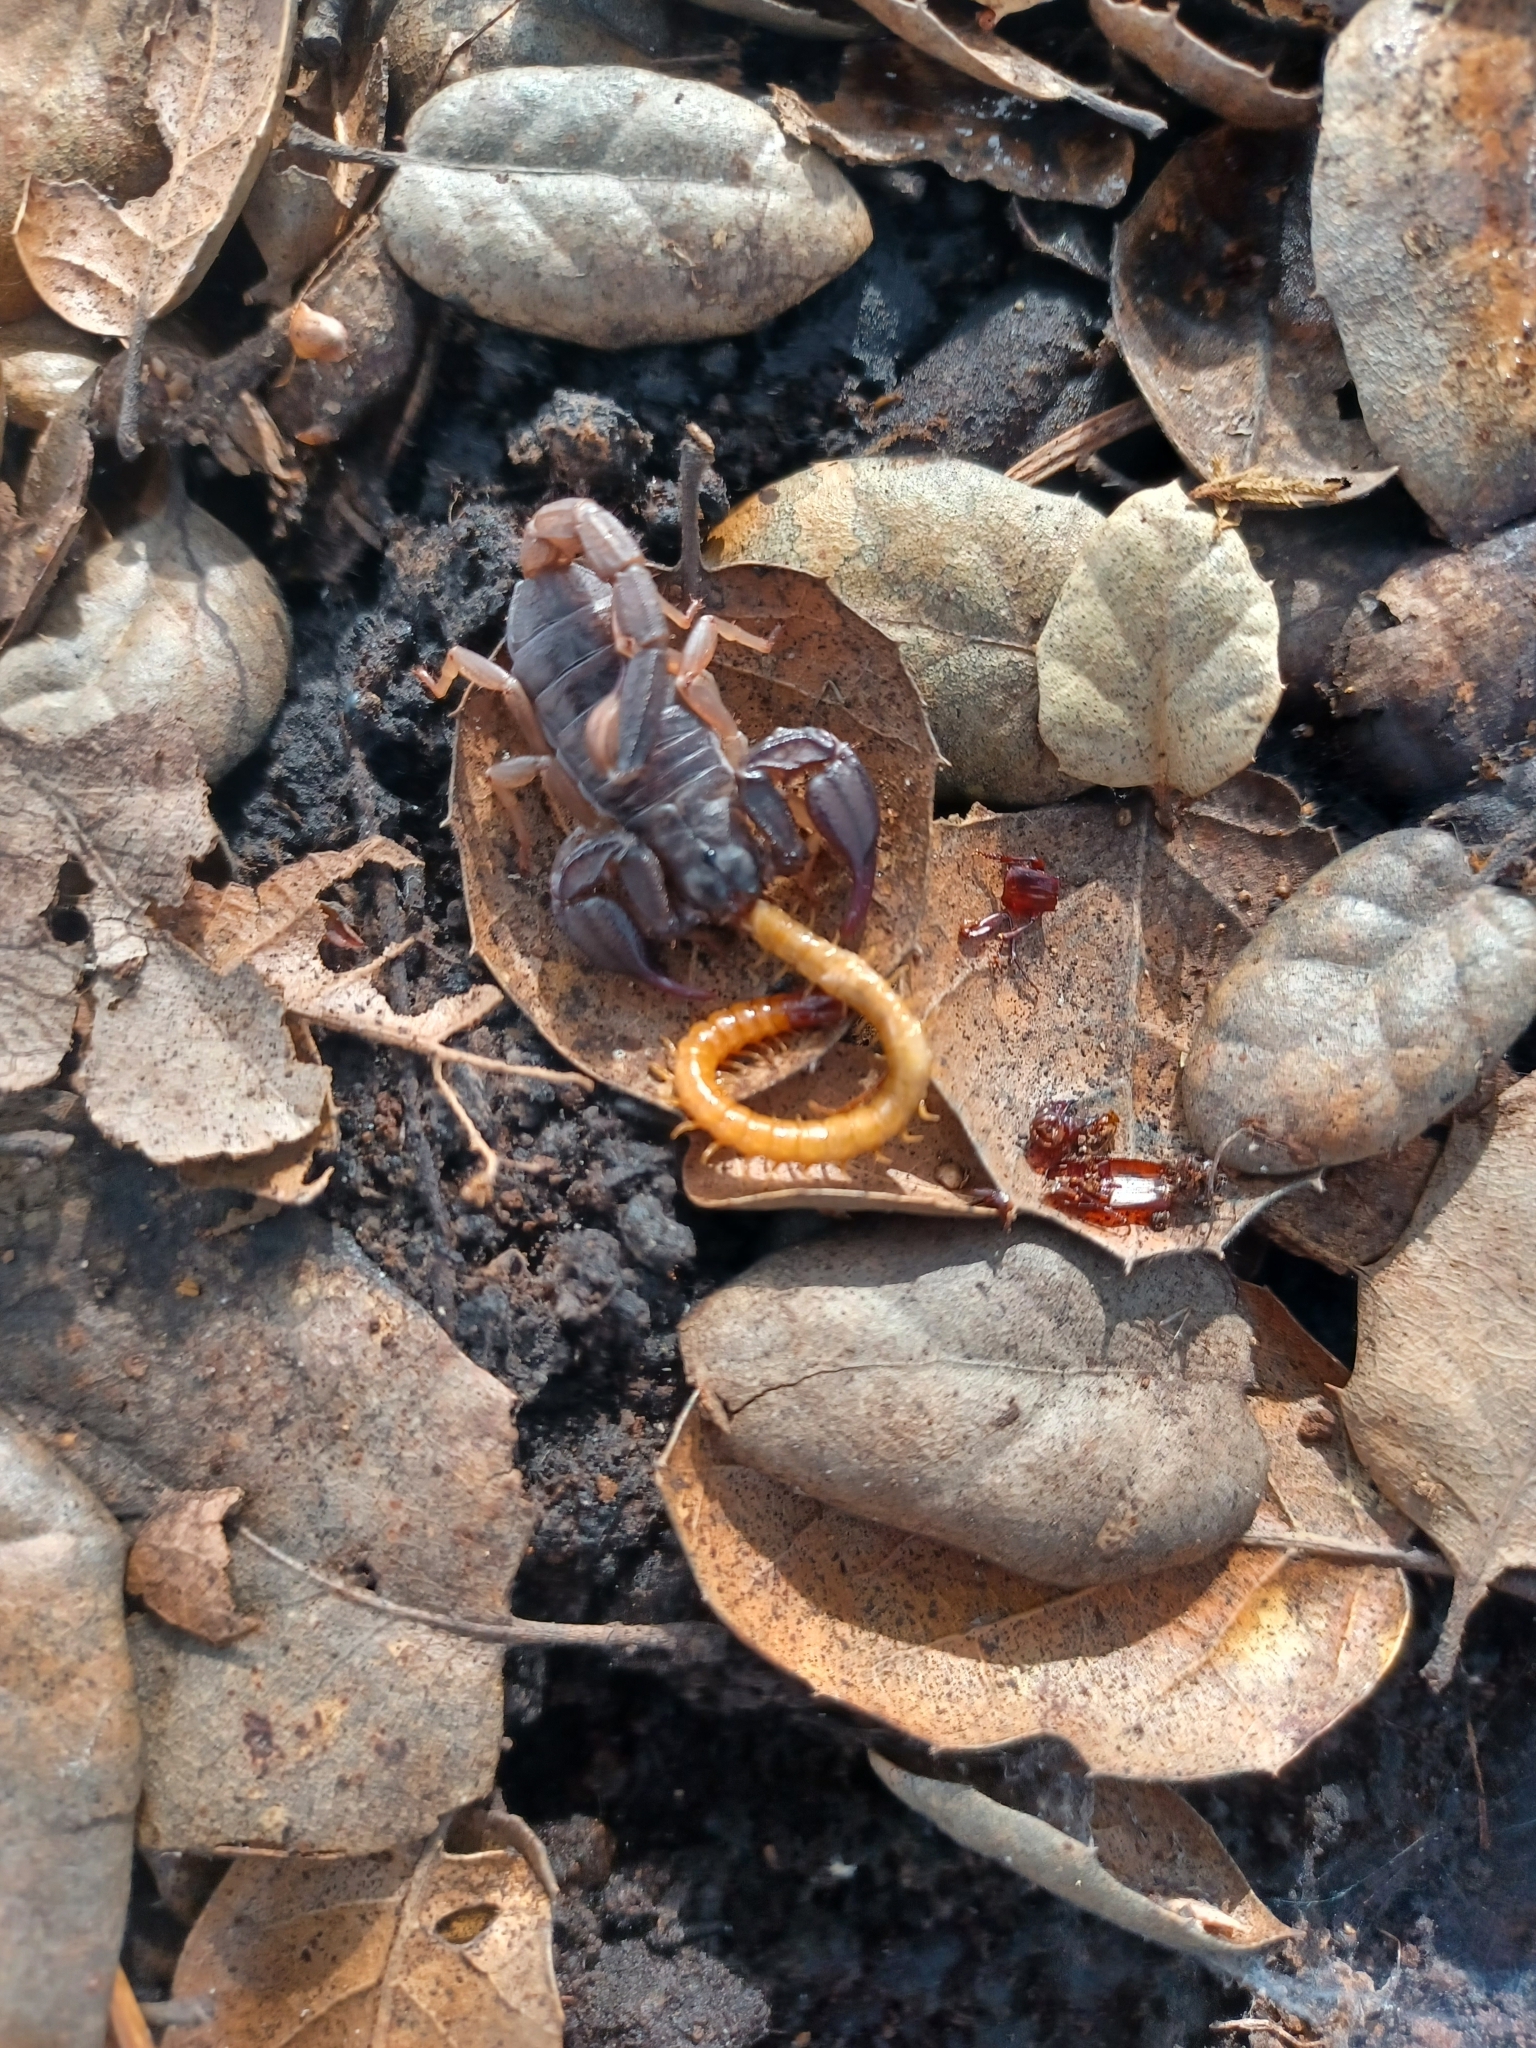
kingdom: Animalia
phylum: Arthropoda
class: Arachnida
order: Scorpiones
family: Chactidae
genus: Uroctonus
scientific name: Uroctonus mordax
